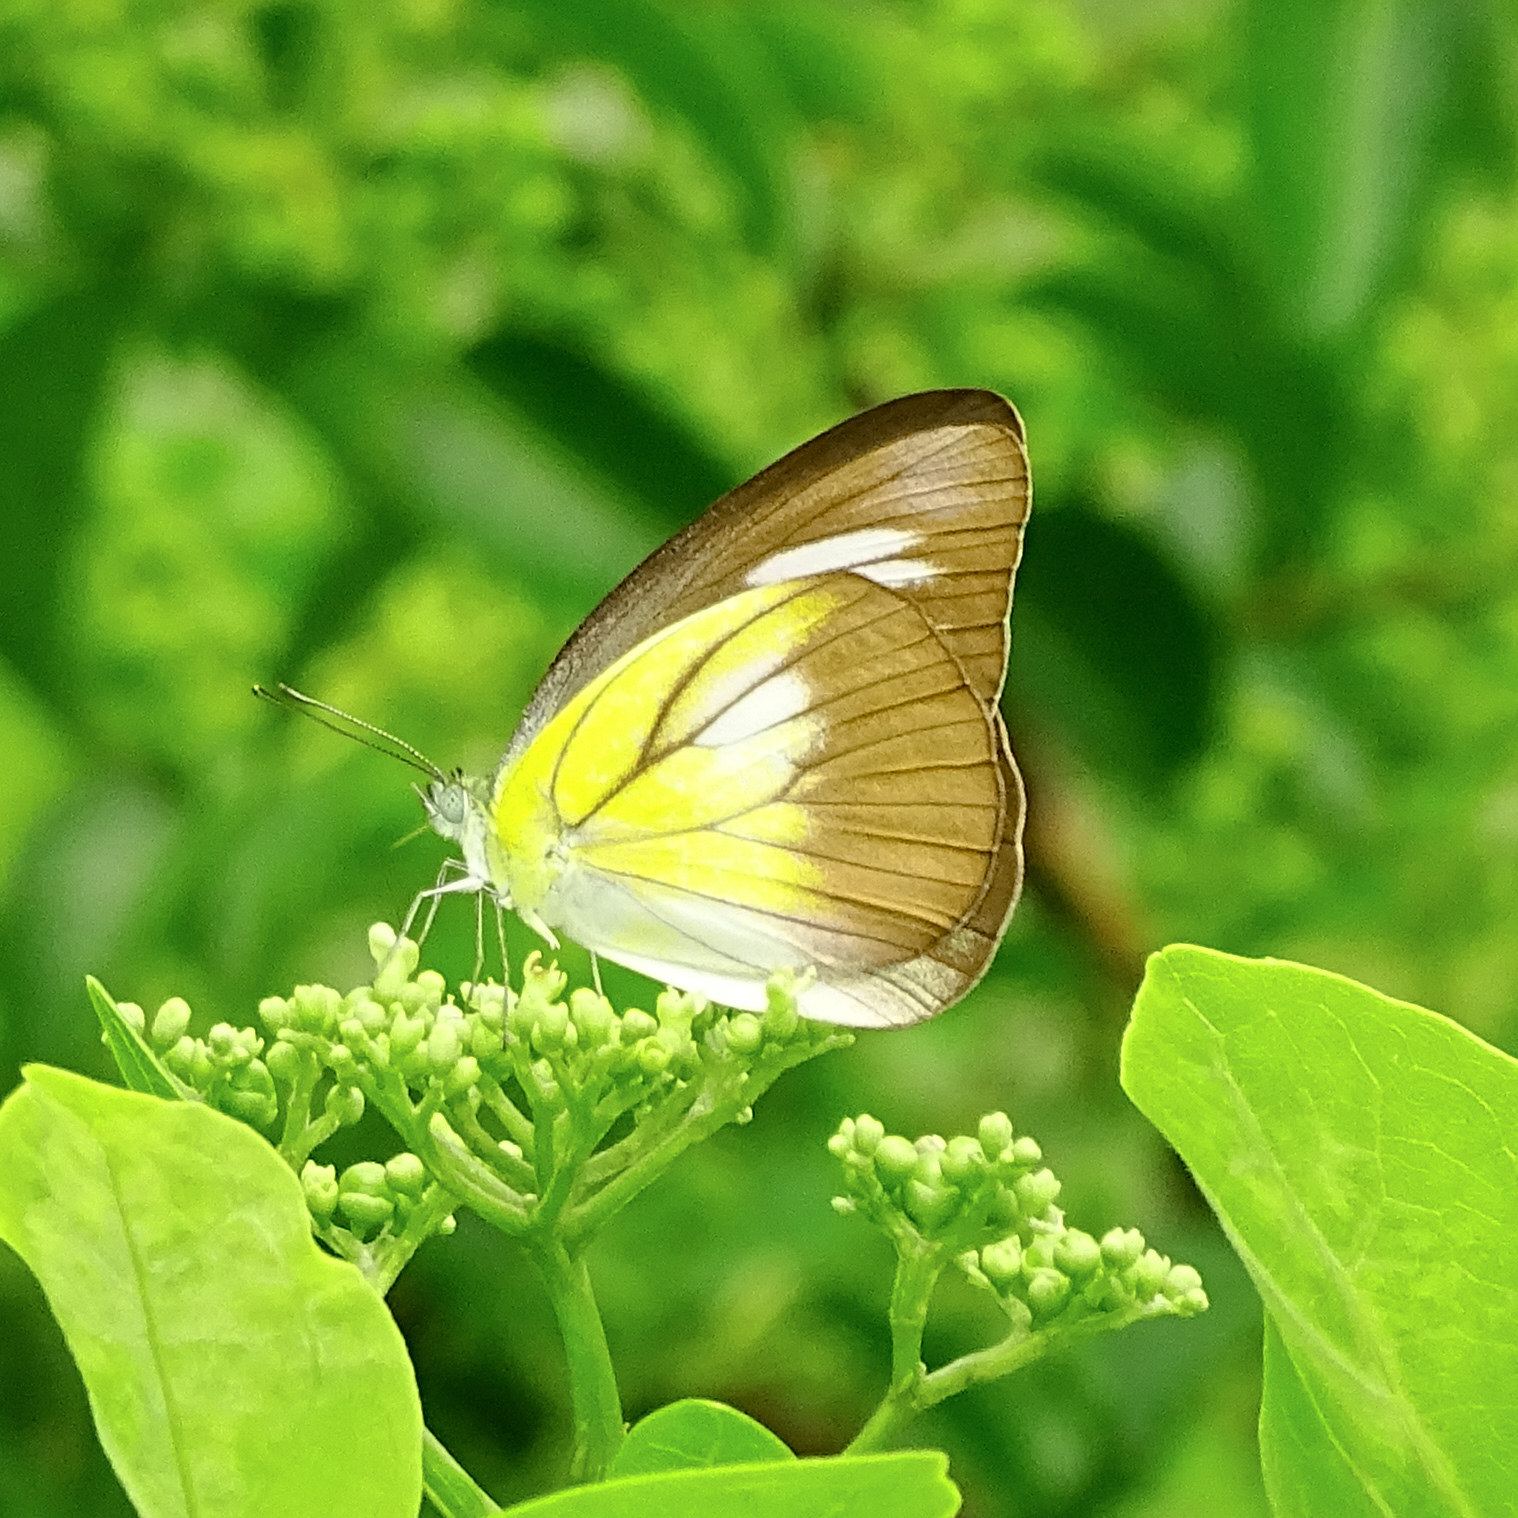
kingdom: Animalia
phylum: Arthropoda
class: Insecta
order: Lepidoptera
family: Pieridae
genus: Appias
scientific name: Appias lyncida
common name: Chocolate albatross
